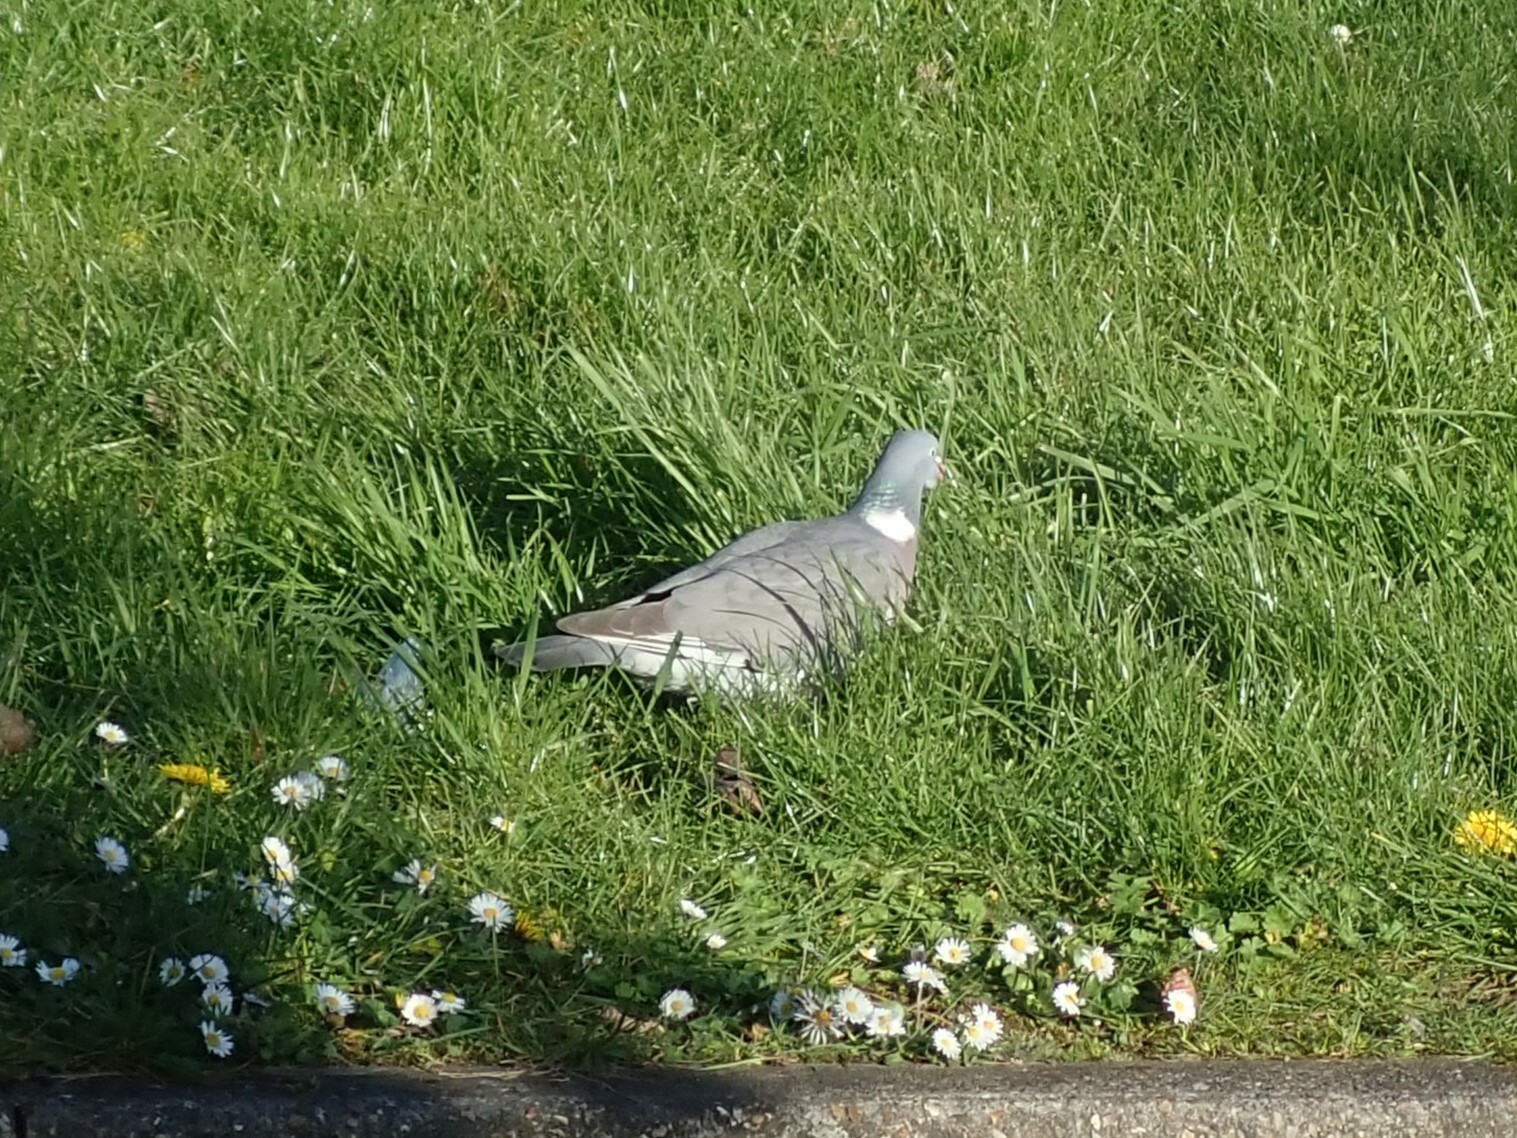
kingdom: Animalia
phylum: Chordata
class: Aves
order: Columbiformes
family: Columbidae
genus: Columba
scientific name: Columba palumbus
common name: Common wood pigeon
